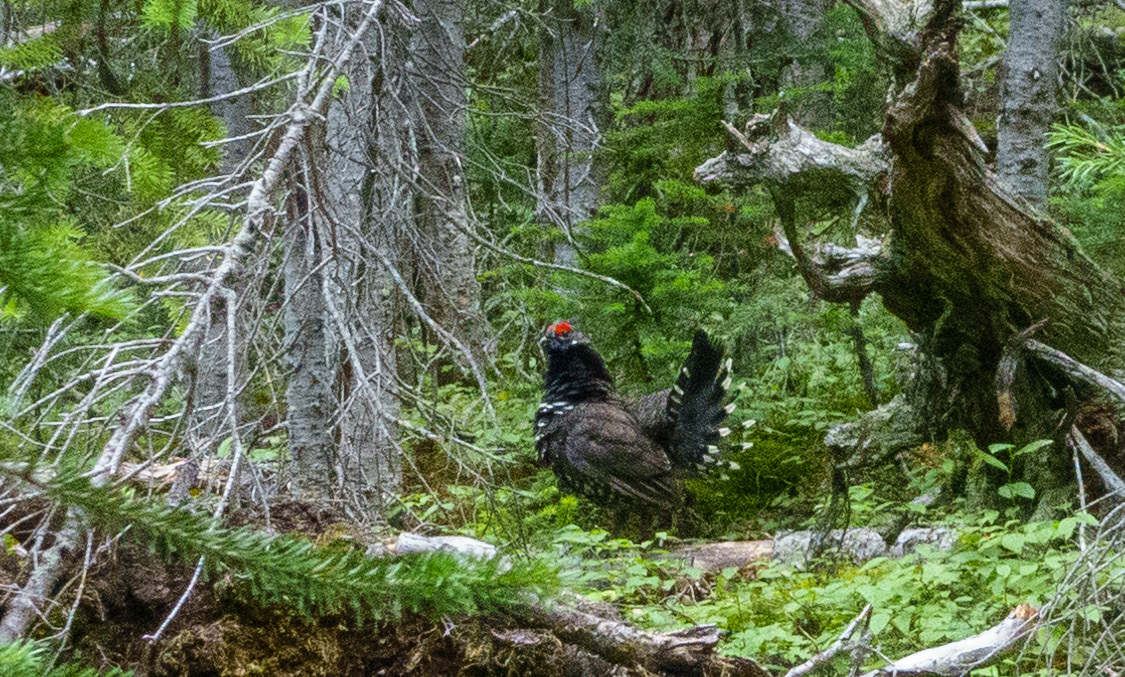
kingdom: Animalia
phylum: Chordata
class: Aves
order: Galliformes
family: Phasianidae
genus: Canachites
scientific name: Canachites canadensis
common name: Spruce grouse
